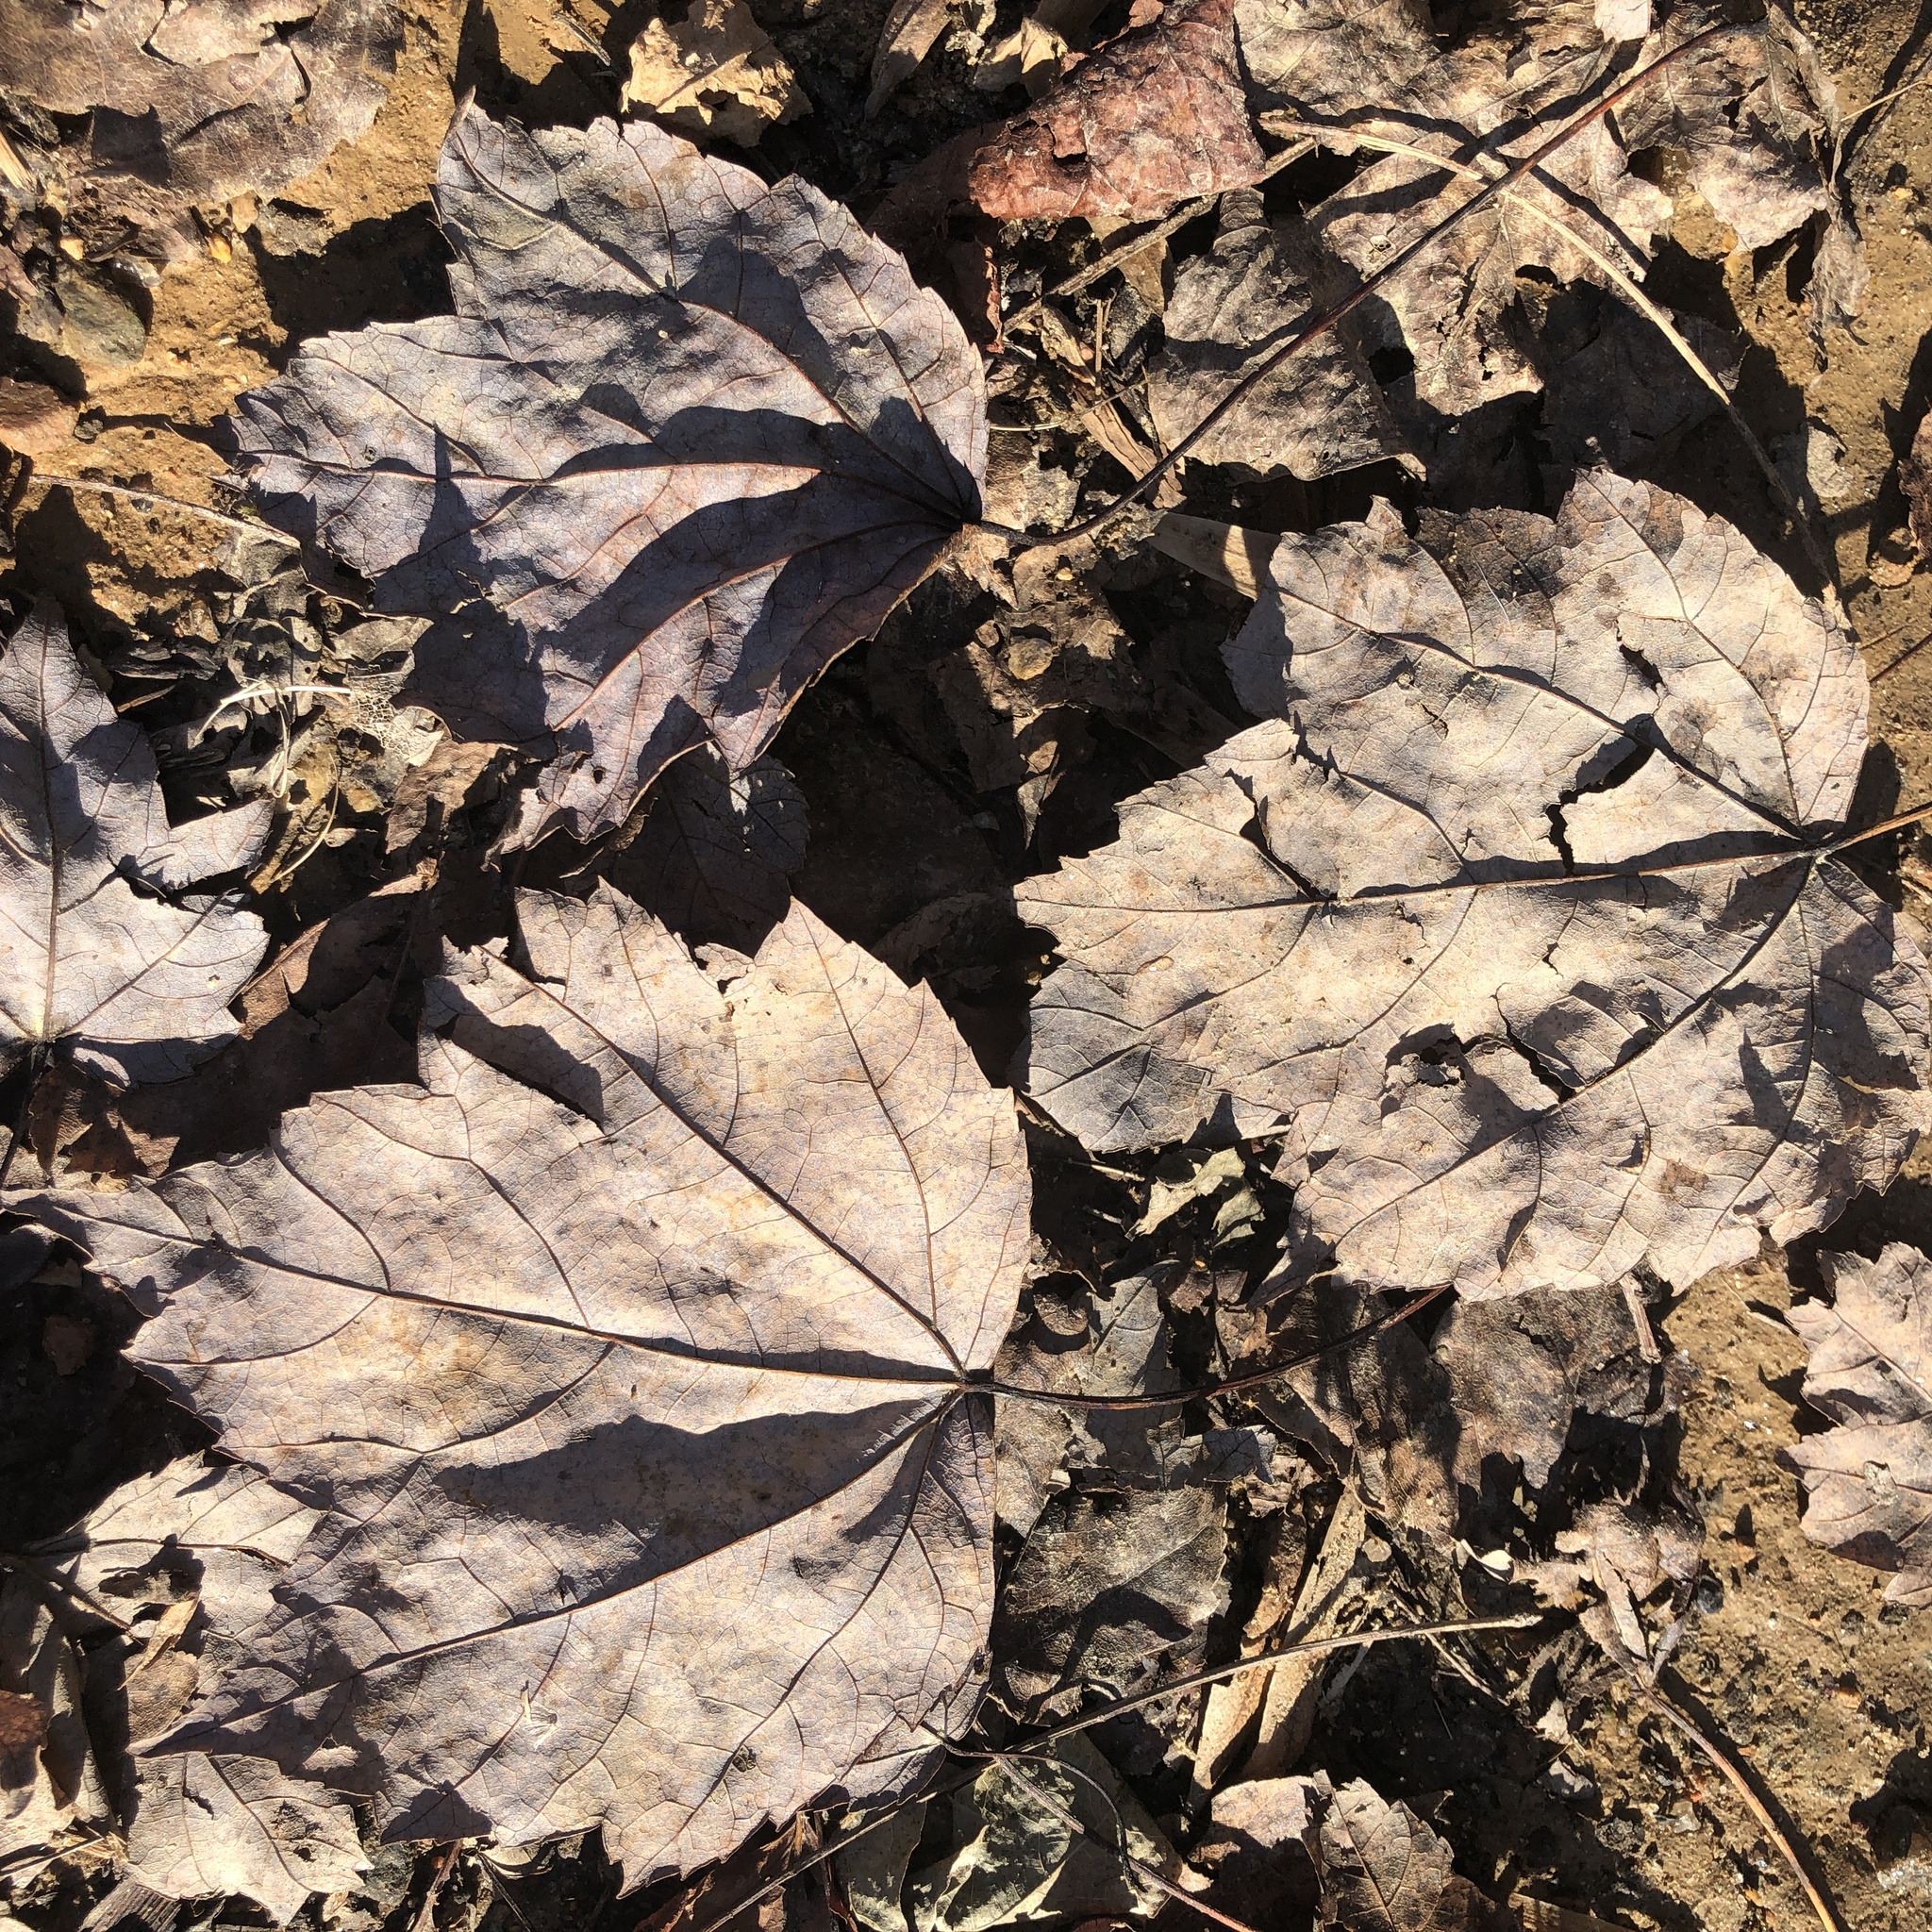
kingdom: Plantae
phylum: Tracheophyta
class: Magnoliopsida
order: Sapindales
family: Sapindaceae
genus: Acer
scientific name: Acer rubrum
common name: Red maple
